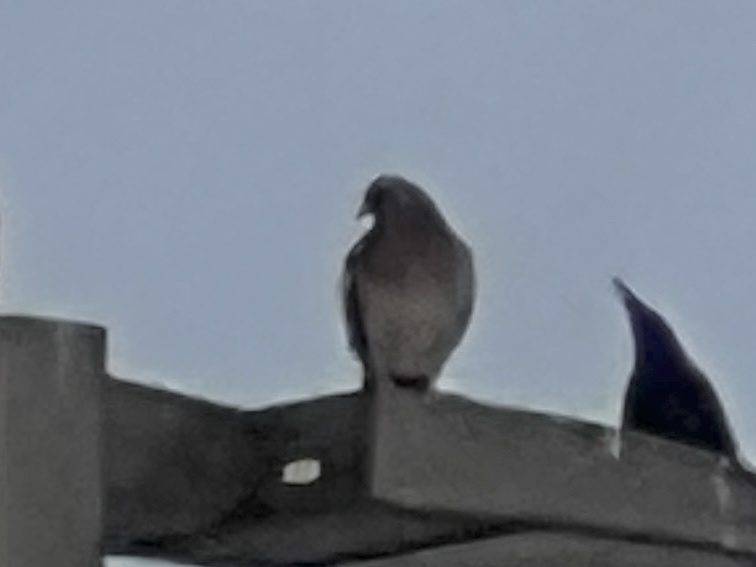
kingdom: Animalia
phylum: Chordata
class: Aves
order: Columbiformes
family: Columbidae
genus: Columba
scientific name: Columba livia
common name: Rock pigeon
